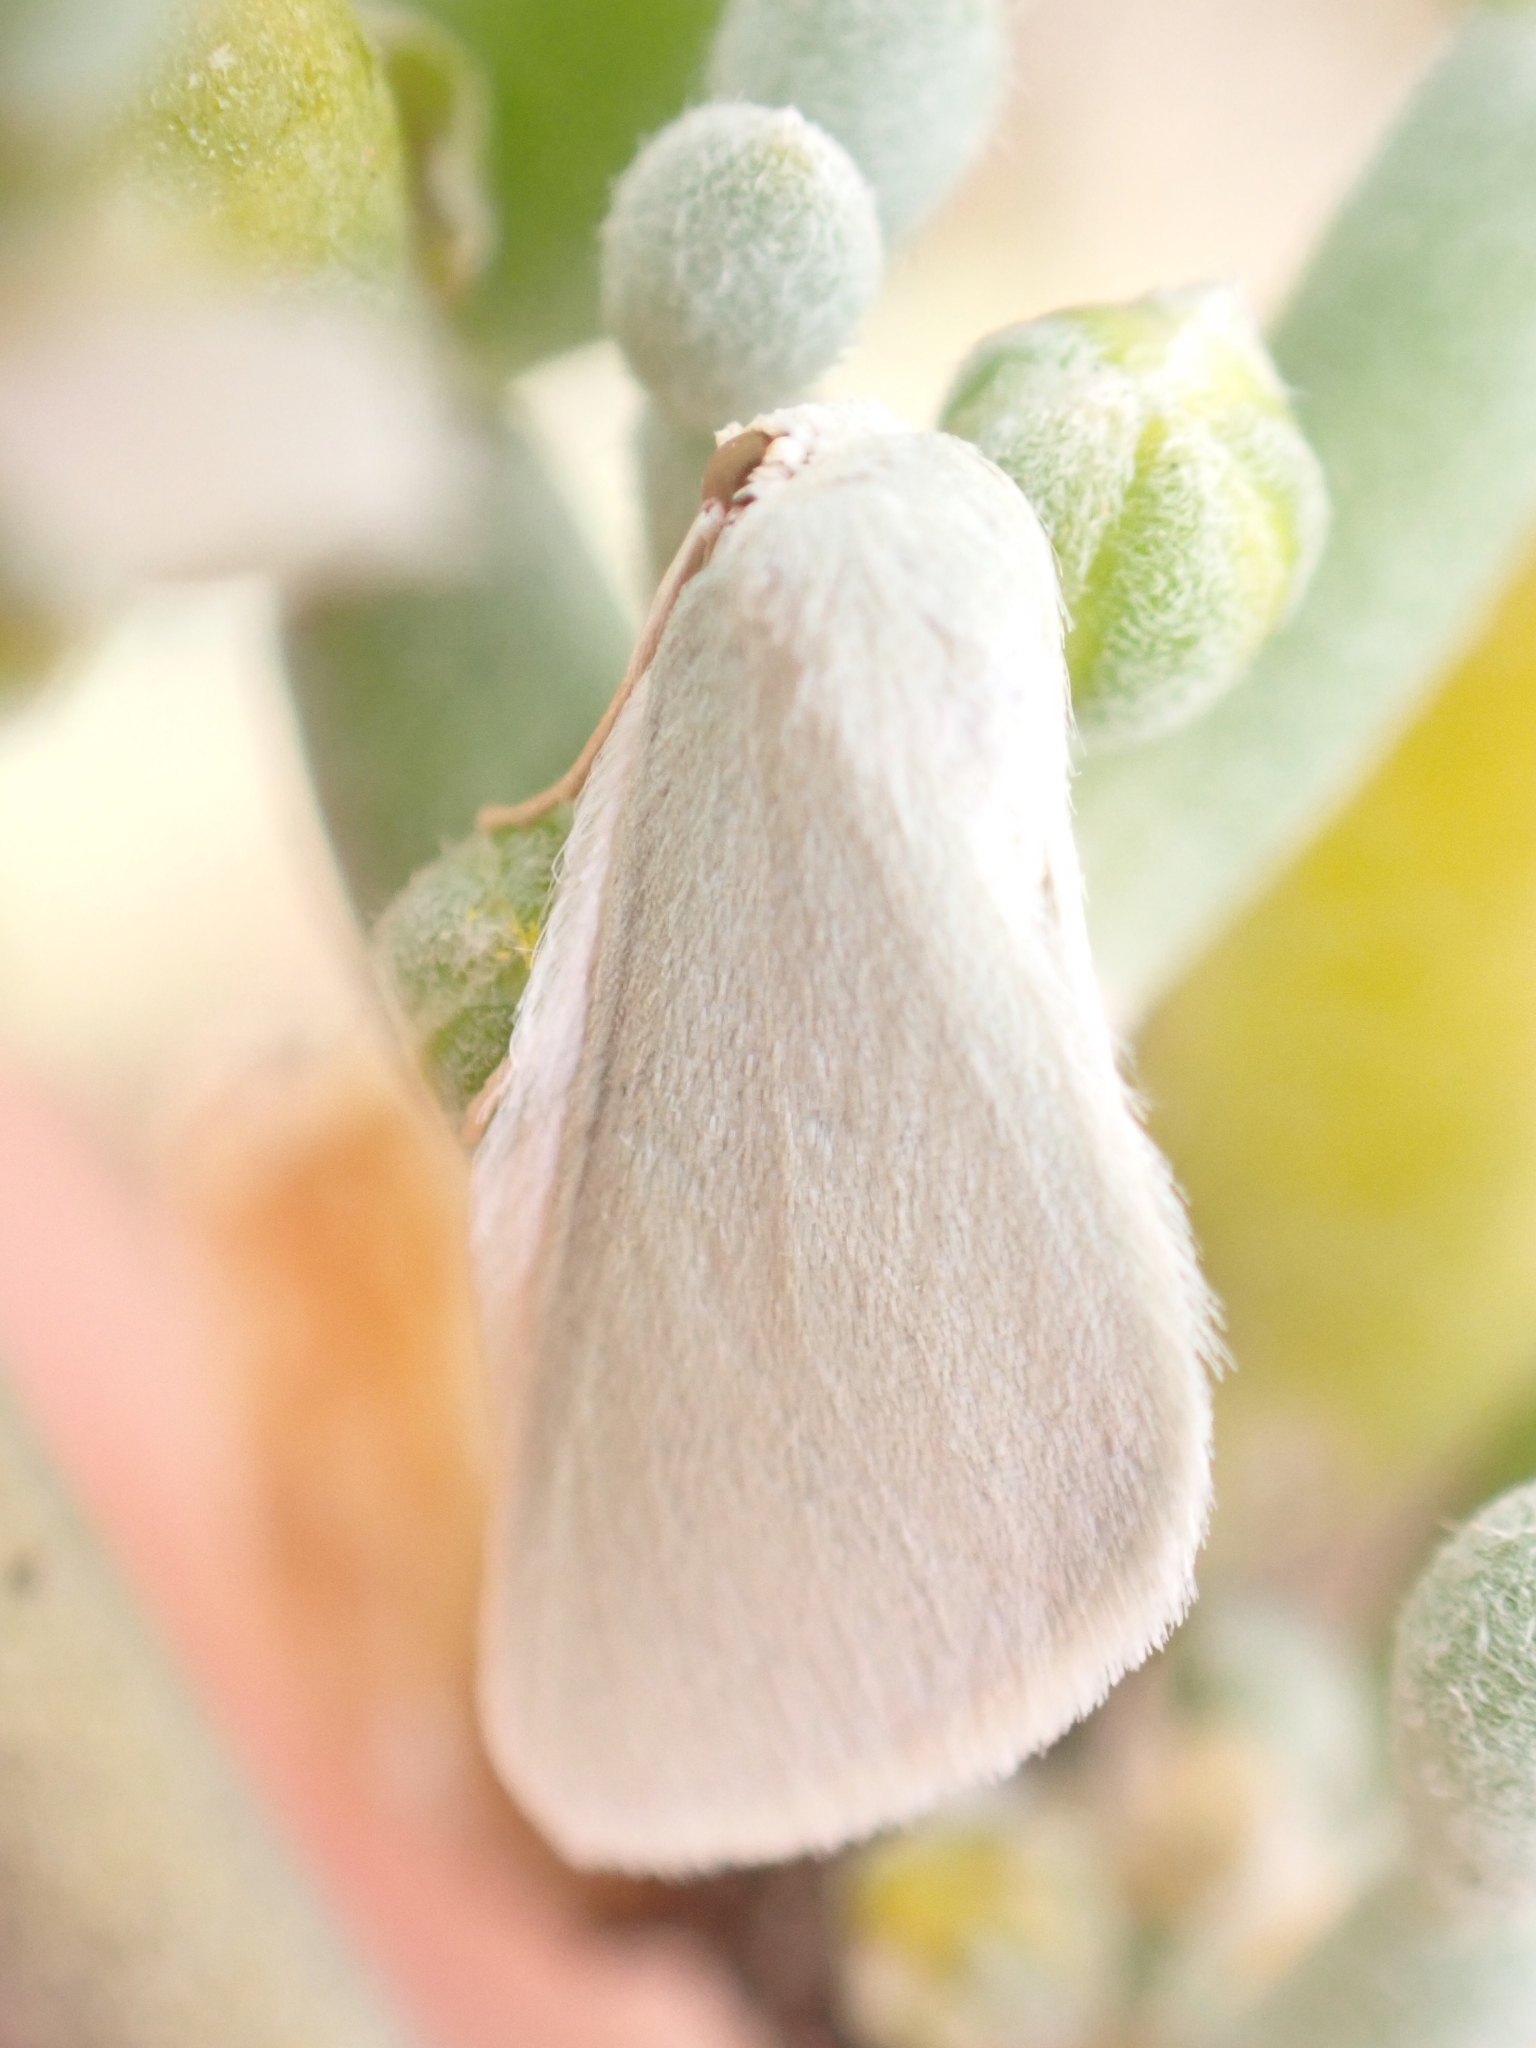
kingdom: Animalia
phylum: Arthropoda
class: Insecta
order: Lepidoptera
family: Geometridae
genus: Microloxia
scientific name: Microloxia simonyi
